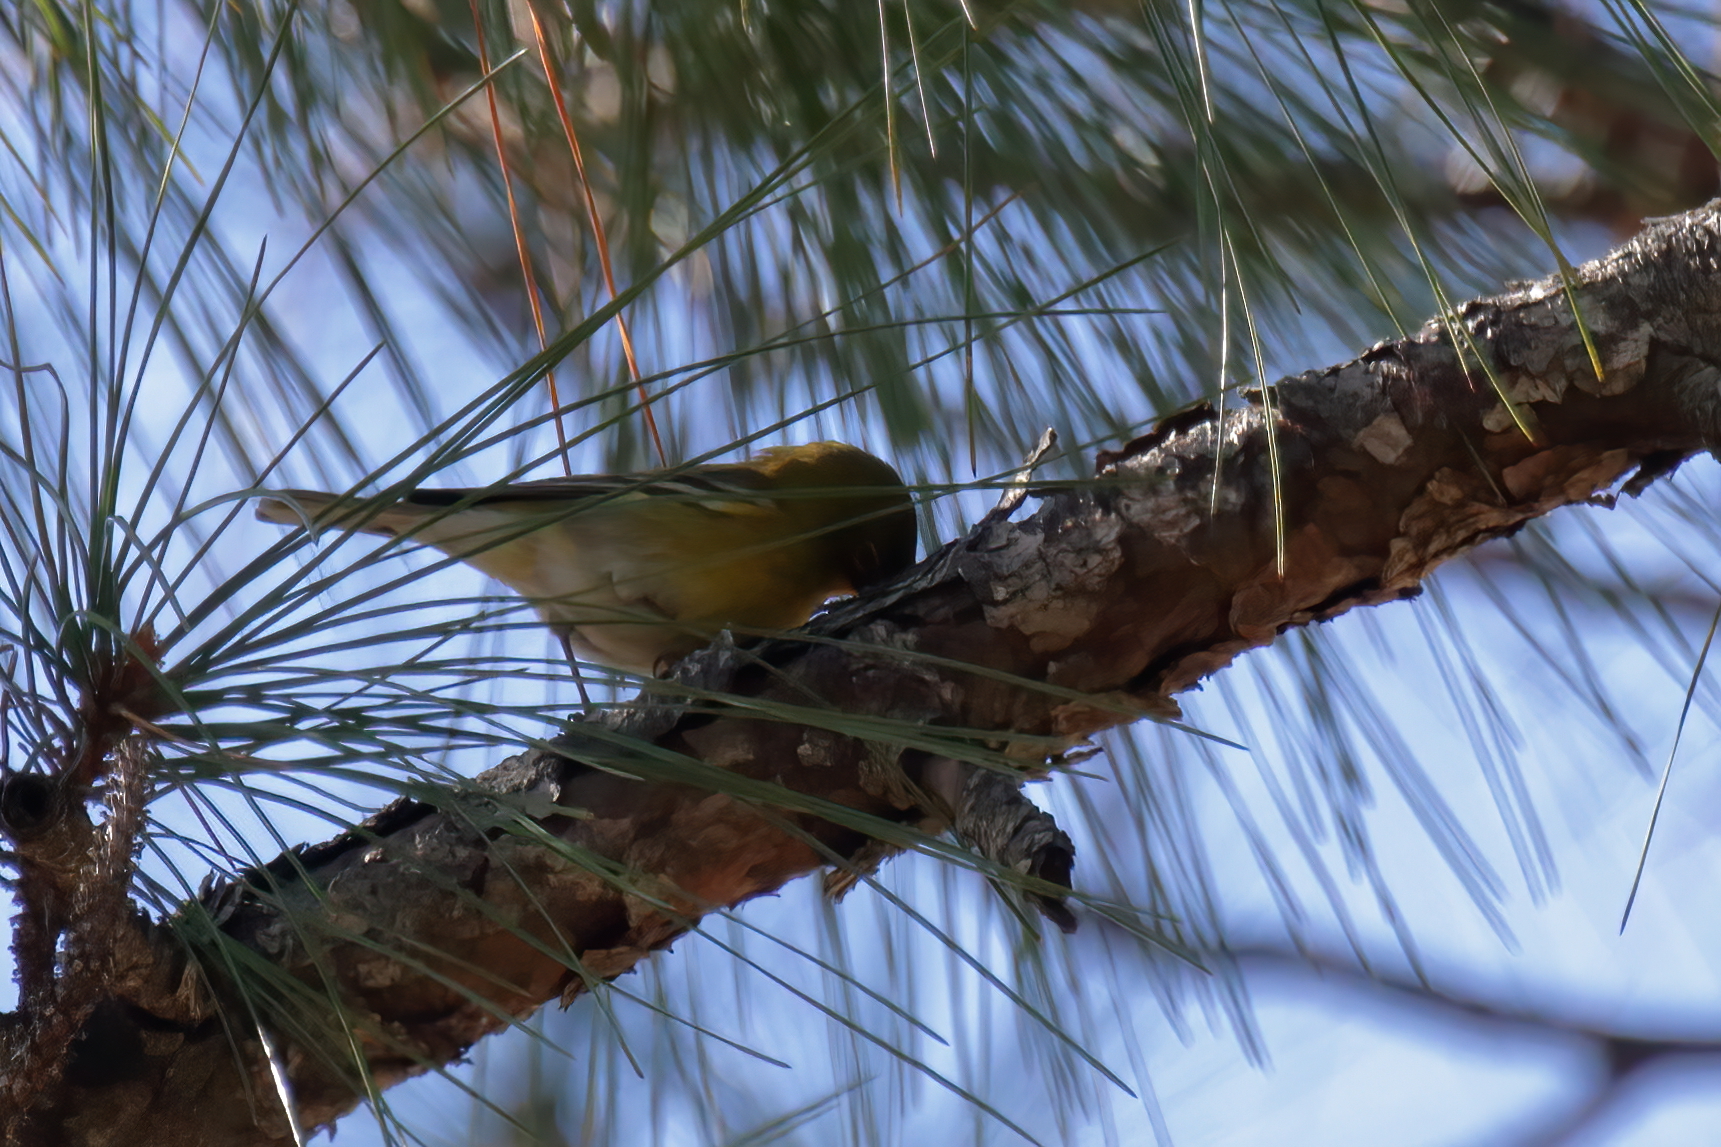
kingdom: Animalia
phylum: Chordata
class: Aves
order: Passeriformes
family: Parulidae
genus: Setophaga
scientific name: Setophaga pinus
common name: Pine warbler
